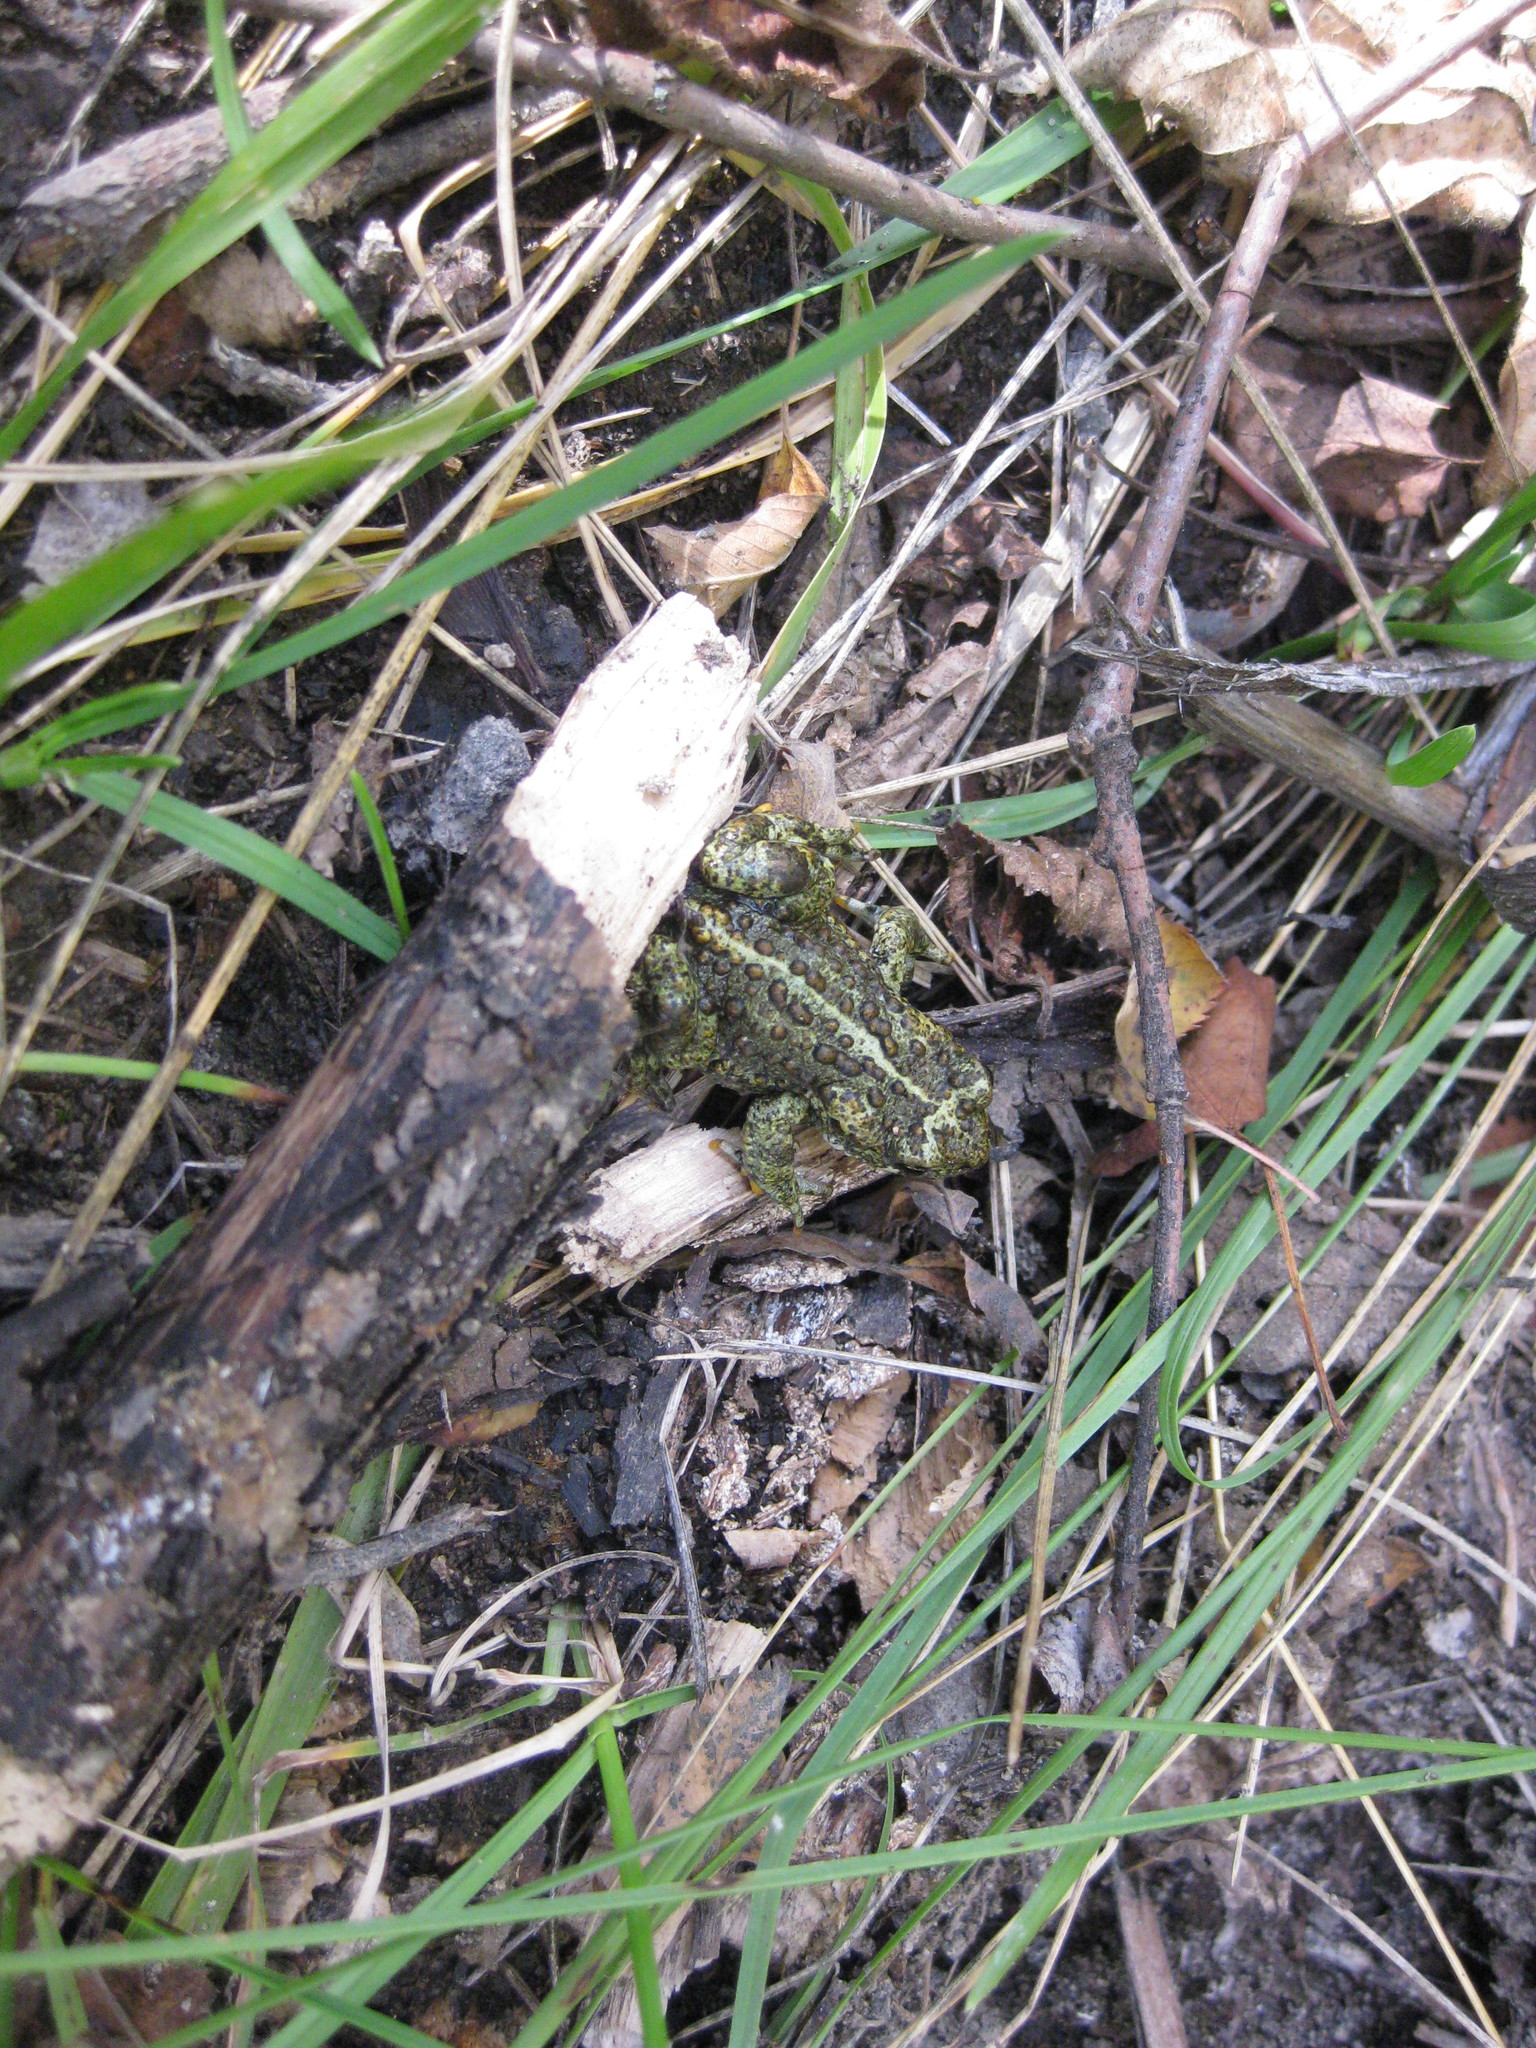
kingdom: Animalia
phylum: Chordata
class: Amphibia
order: Anura
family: Bufonidae
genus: Anaxyrus
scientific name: Anaxyrus boreas
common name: Western toad
